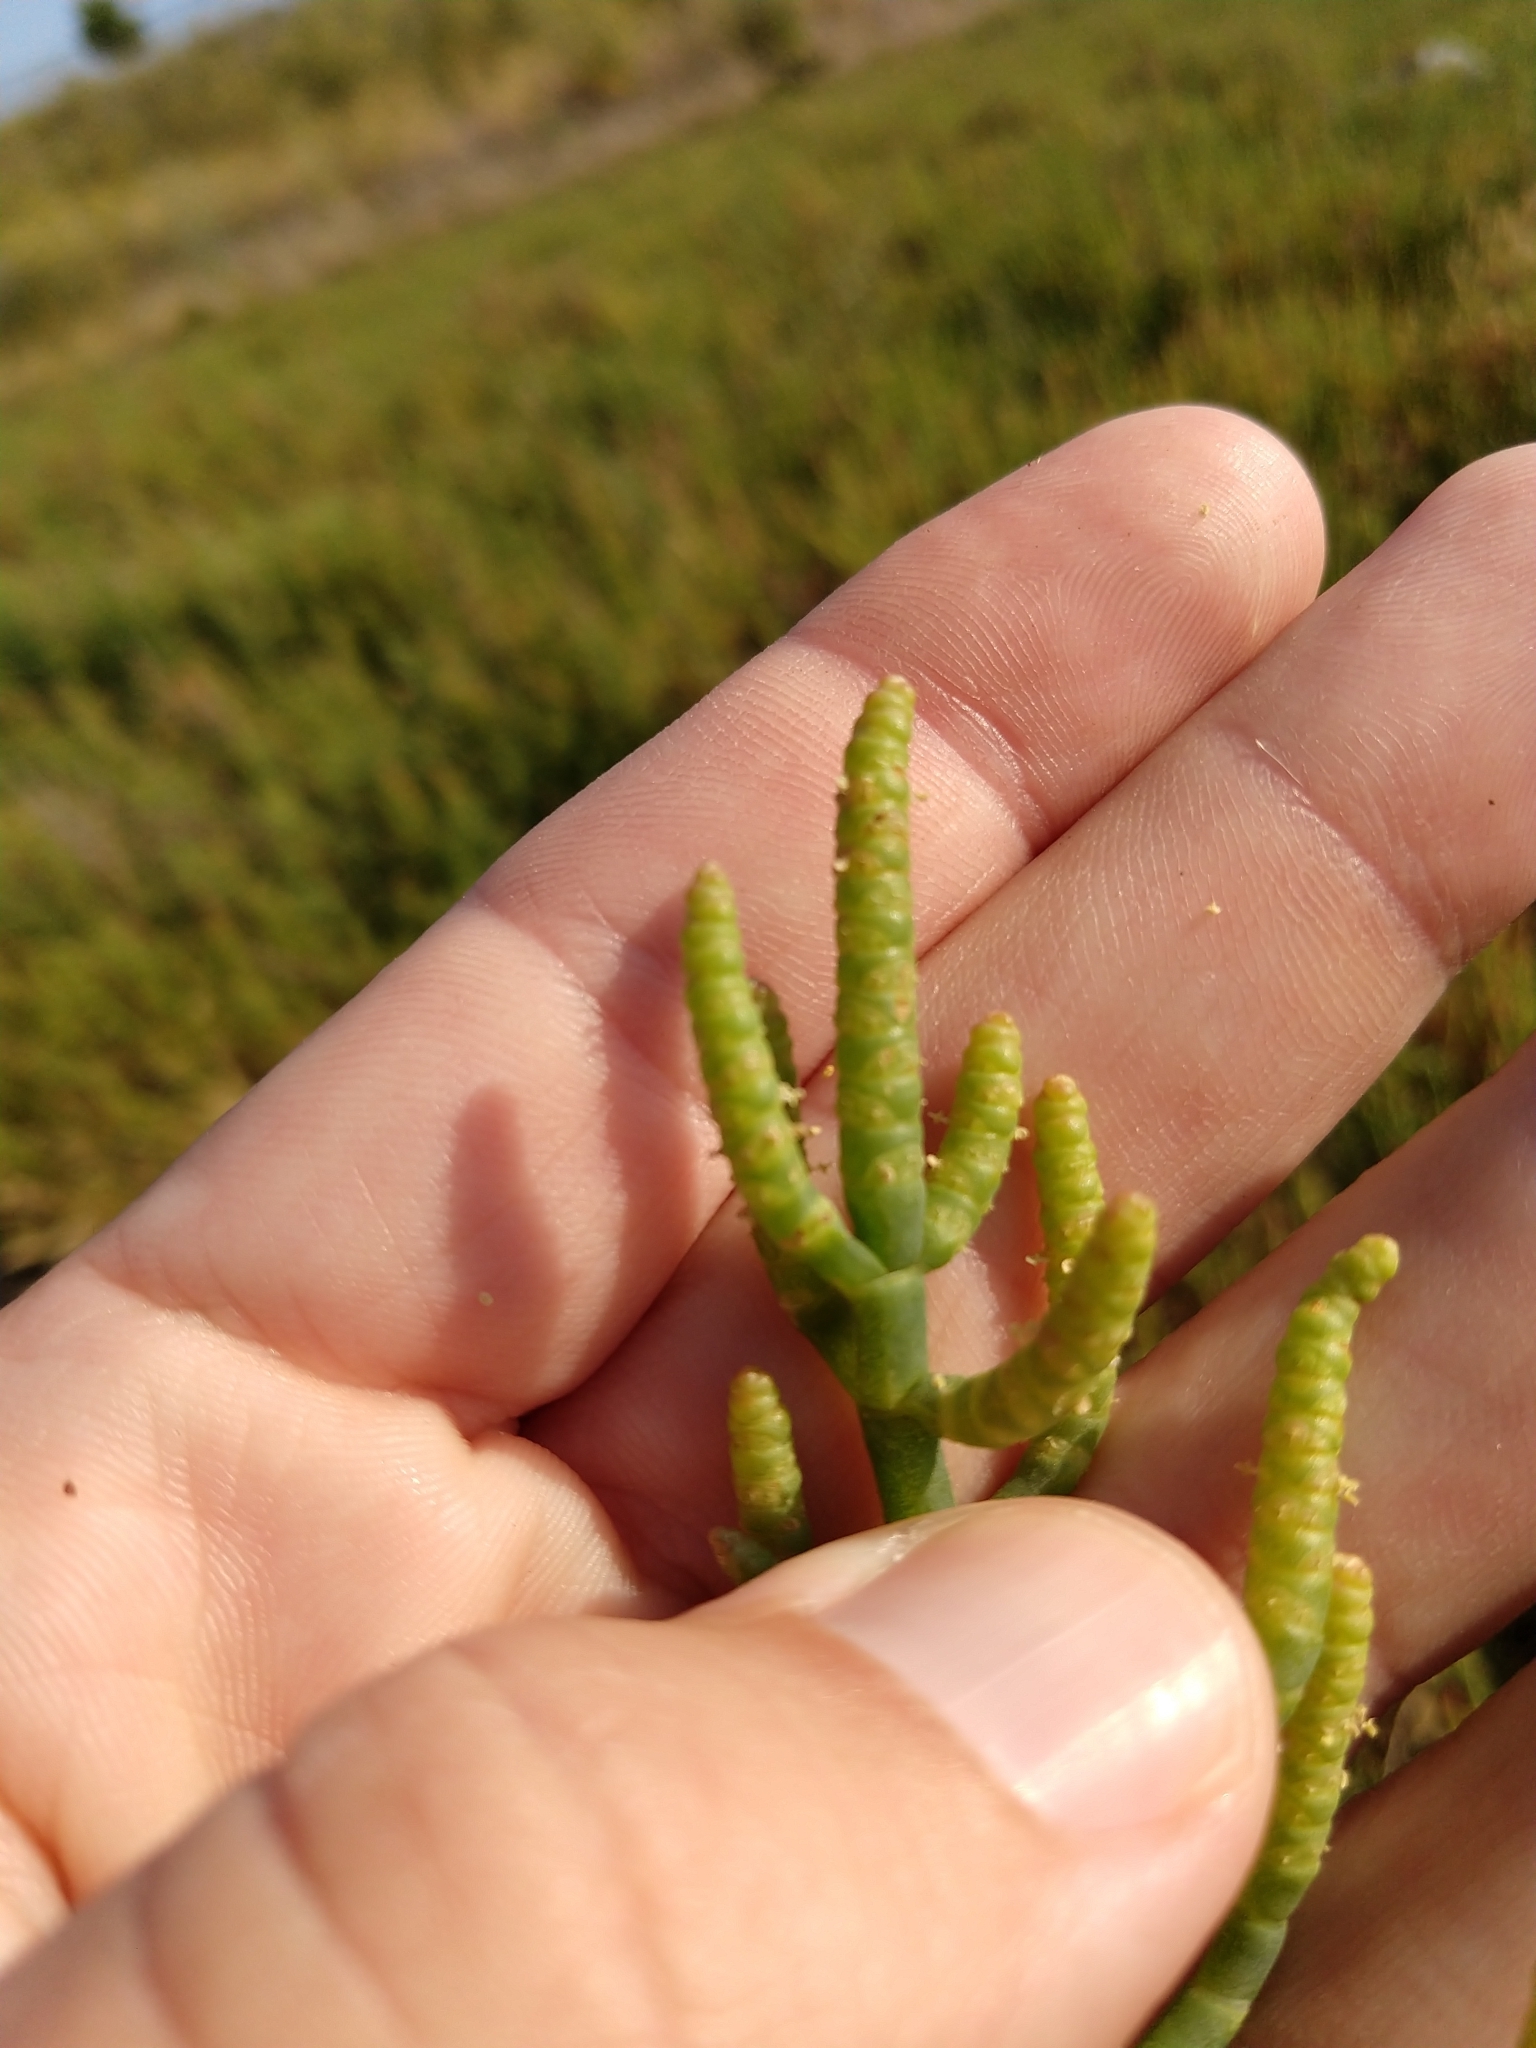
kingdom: Plantae
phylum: Tracheophyta
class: Magnoliopsida
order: Caryophyllales
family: Amaranthaceae
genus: Salicornia
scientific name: Salicornia pacifica
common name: Pacific glasswort
